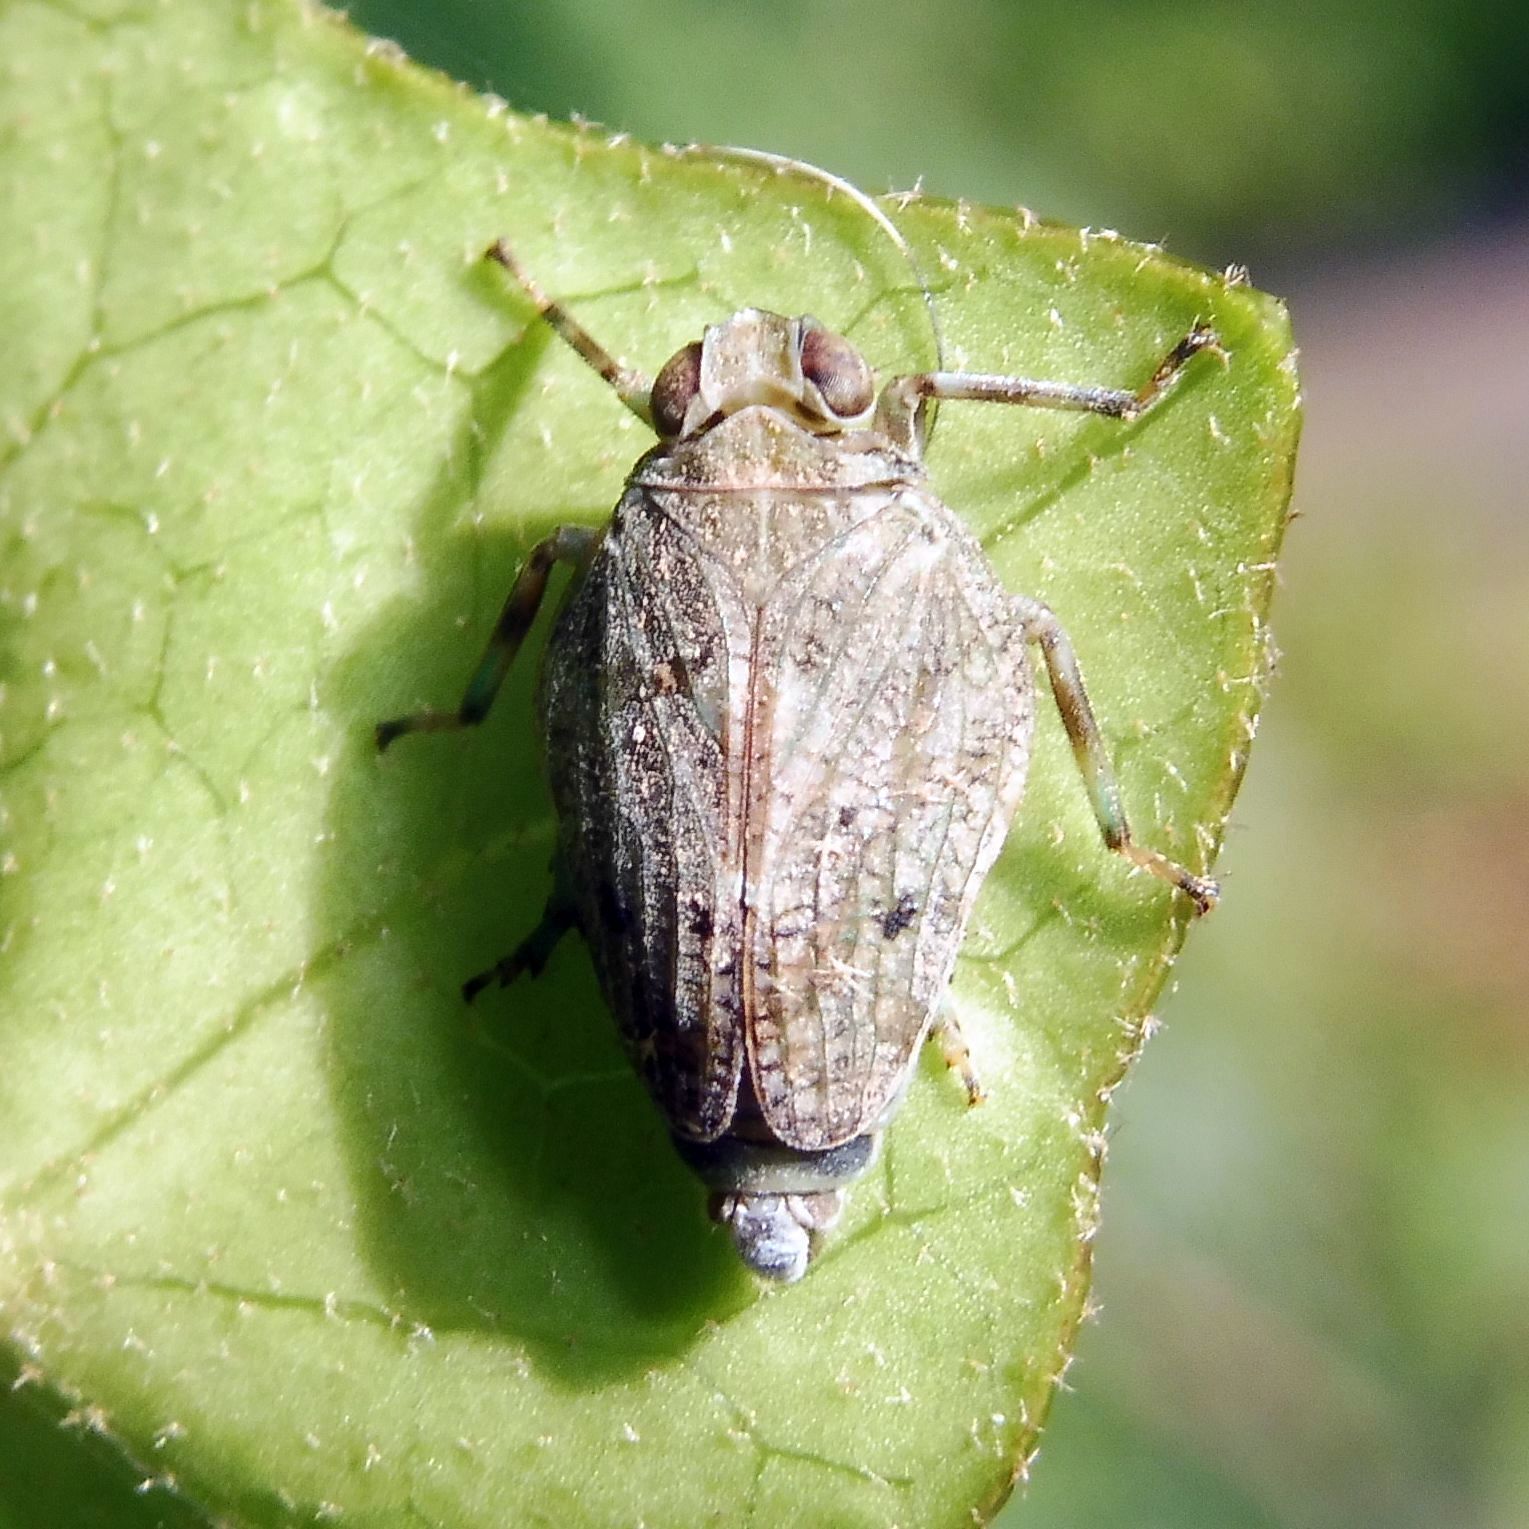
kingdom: Animalia
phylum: Arthropoda
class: Insecta
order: Hemiptera
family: Issidae
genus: Issus
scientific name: Issus coleoptratus
